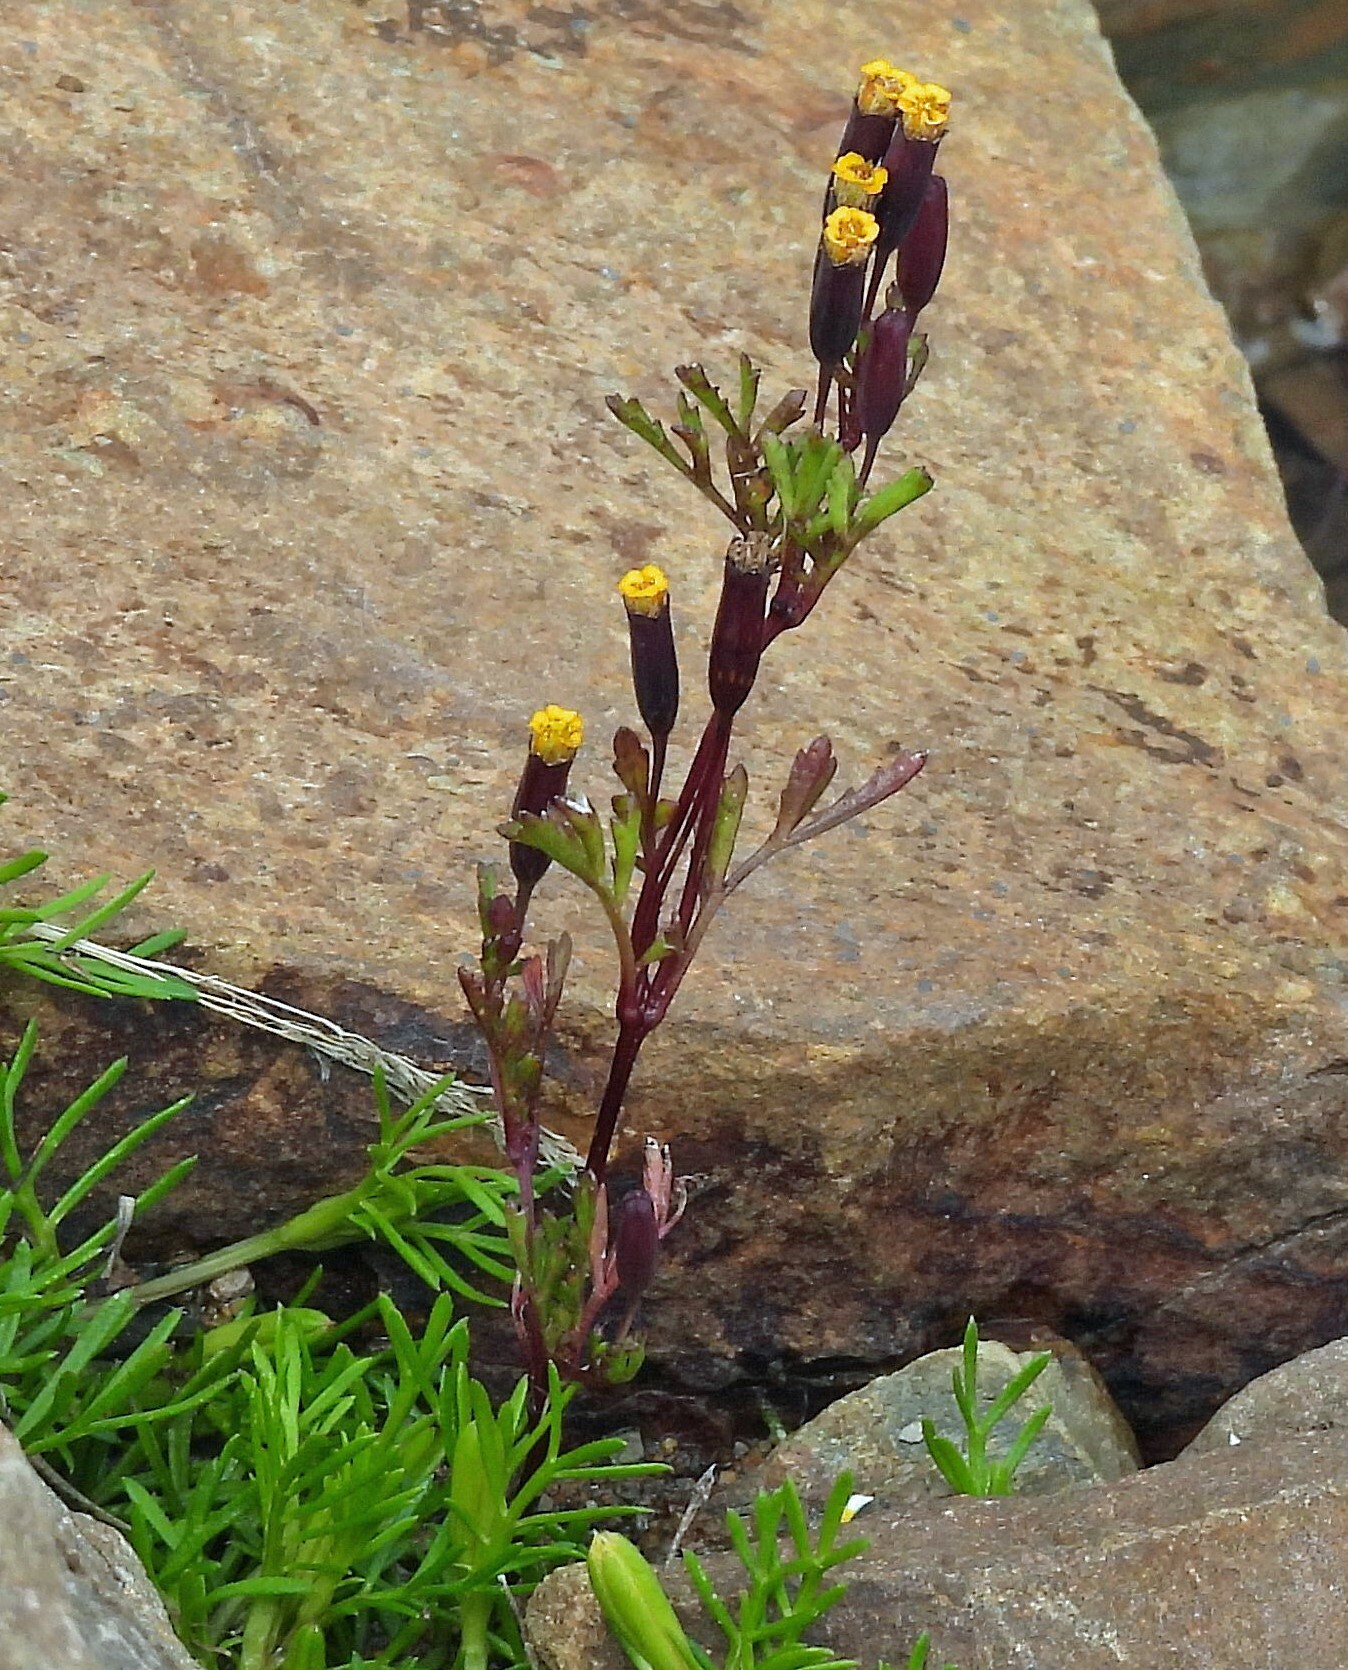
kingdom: Plantae
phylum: Tracheophyta
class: Magnoliopsida
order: Asterales
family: Asteraceae
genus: Tagetes
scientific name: Tagetes multiflora
